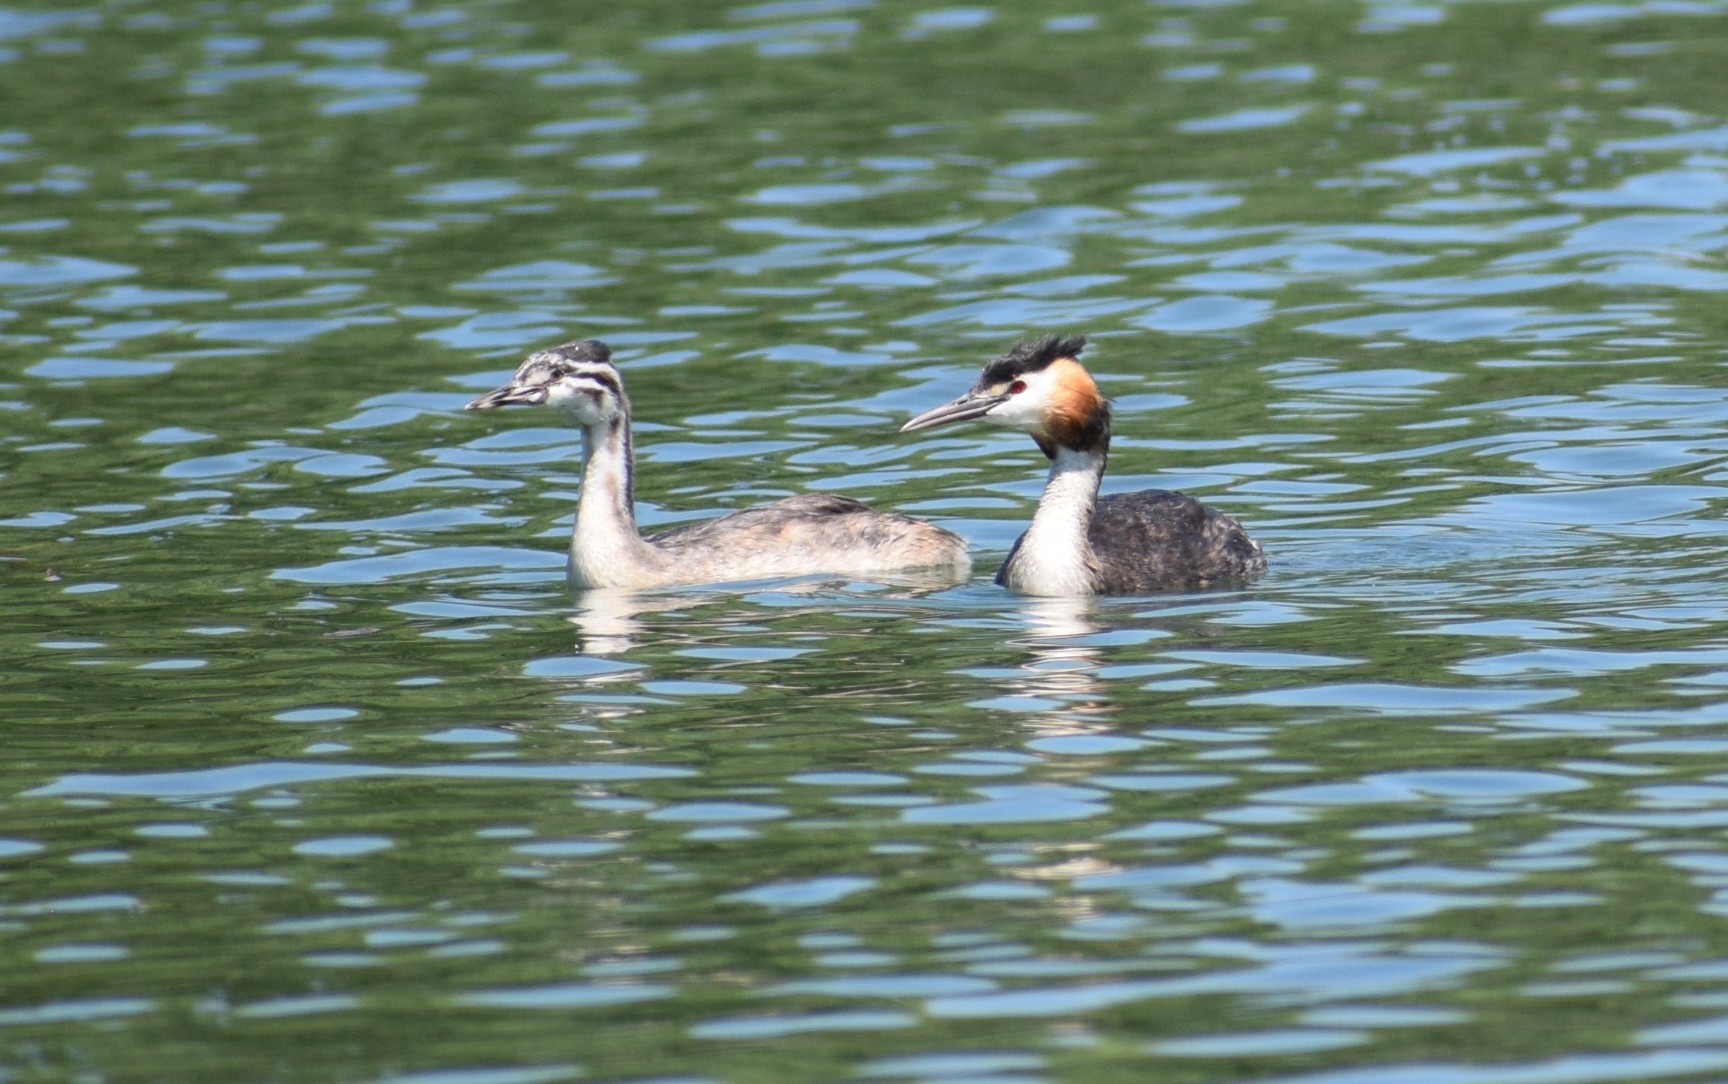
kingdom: Animalia
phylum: Chordata
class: Aves
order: Podicipediformes
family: Podicipedidae
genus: Podiceps
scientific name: Podiceps cristatus
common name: Great crested grebe
